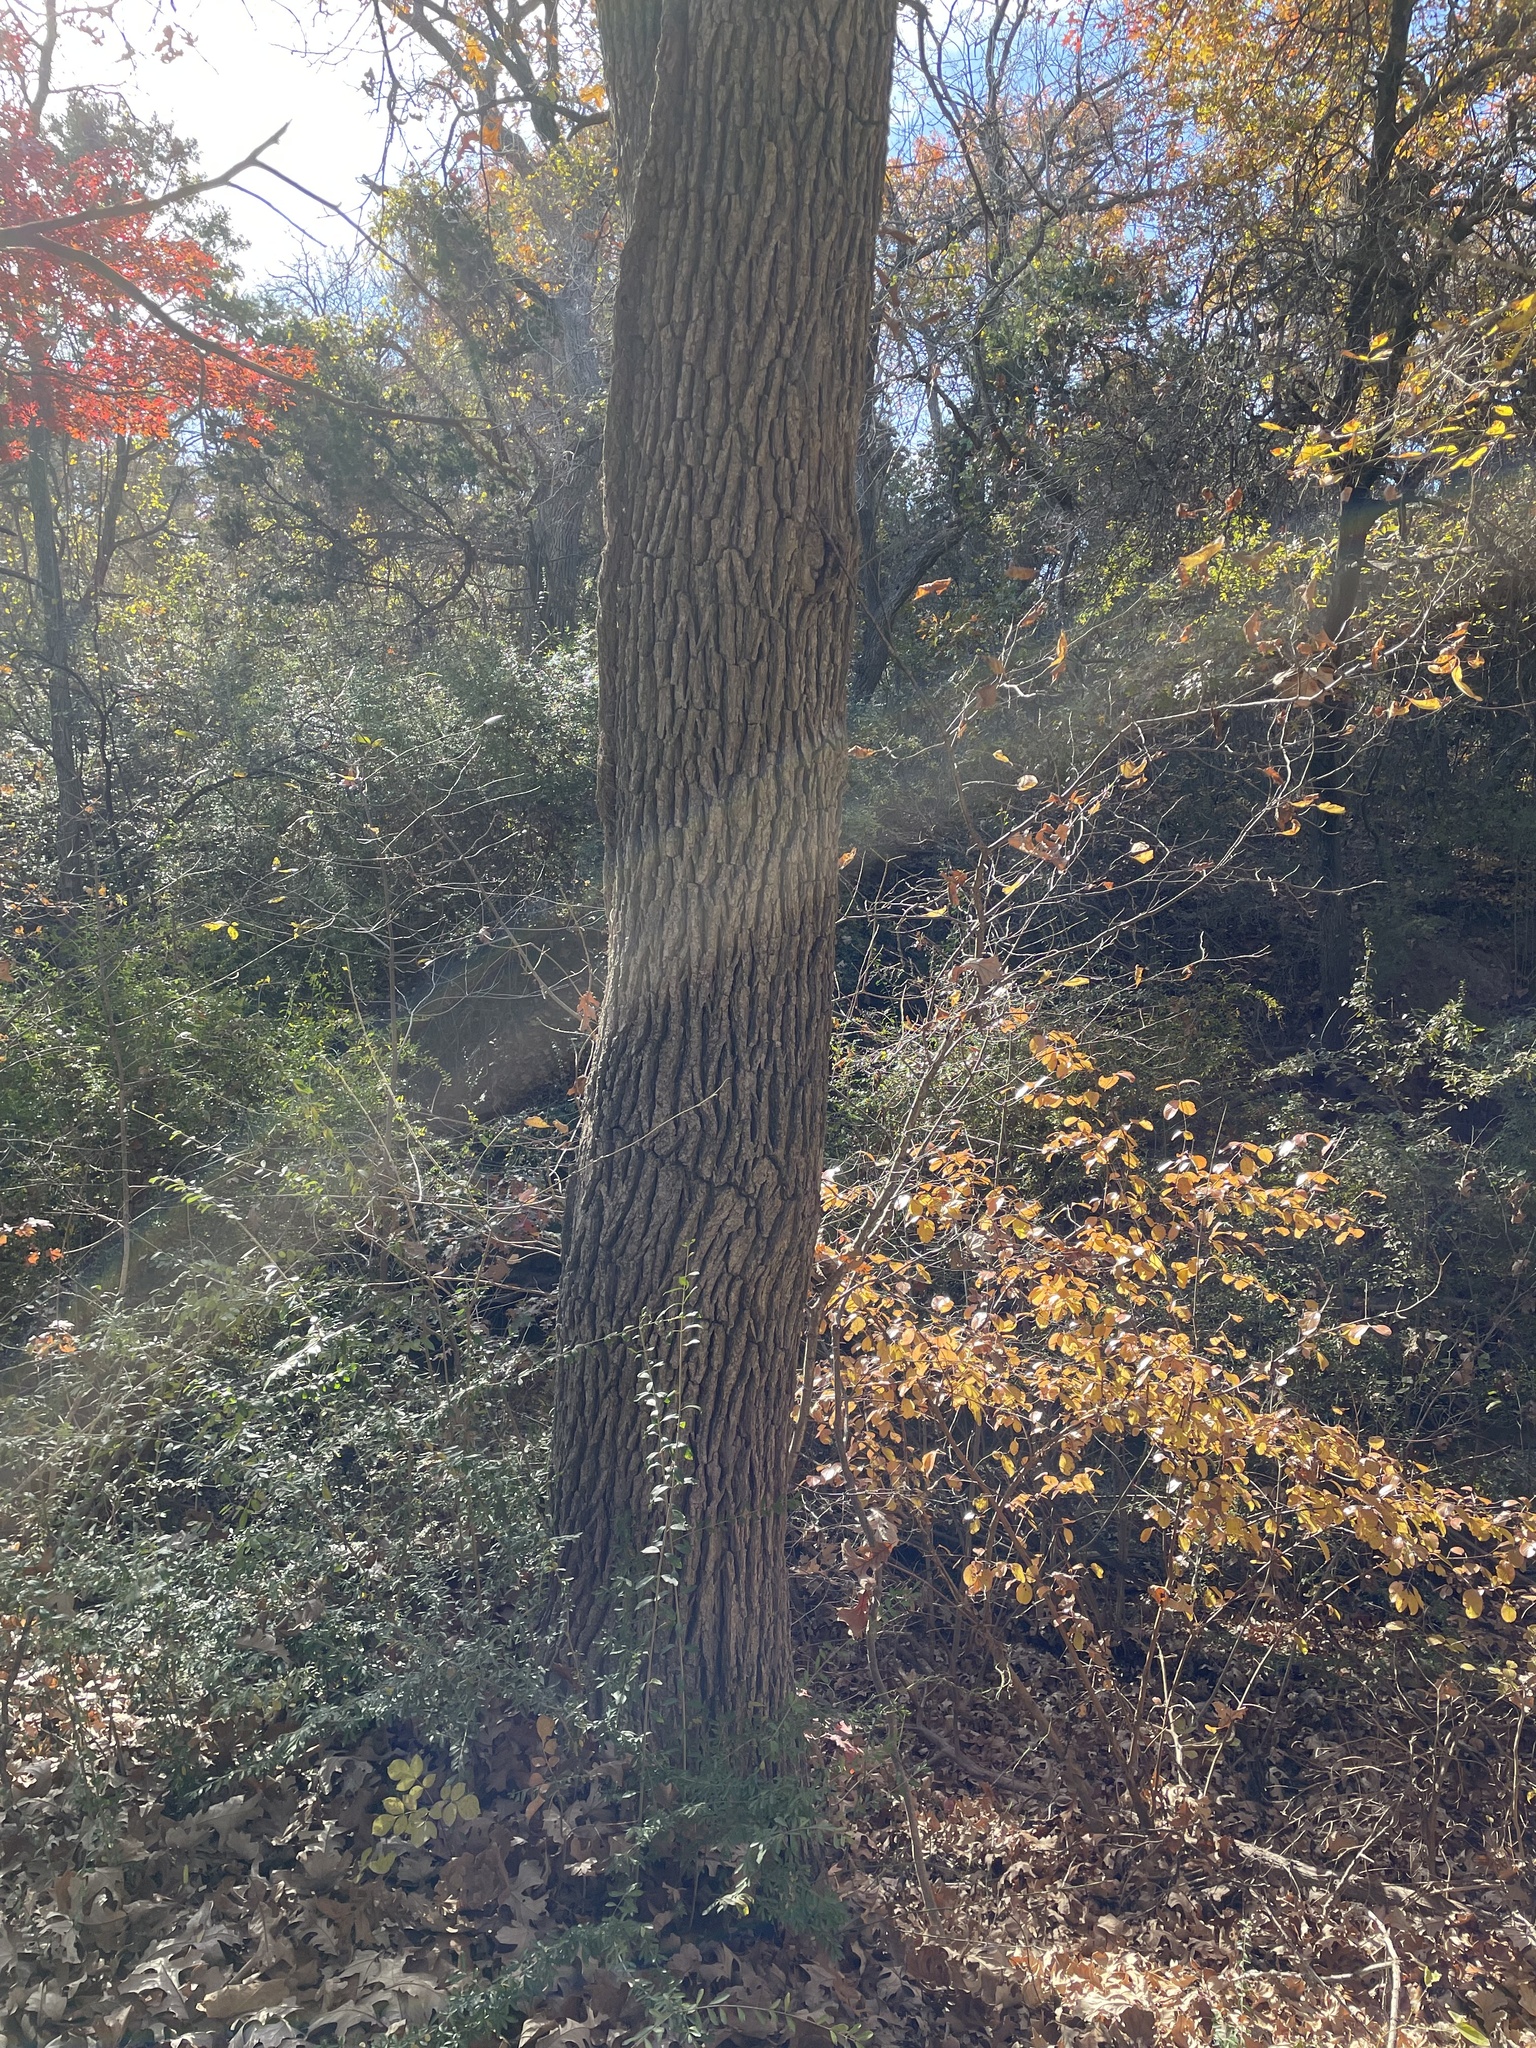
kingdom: Plantae
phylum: Tracheophyta
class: Magnoliopsida
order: Fagales
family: Fagaceae
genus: Quercus
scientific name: Quercus macrocarpa
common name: Bur oak
